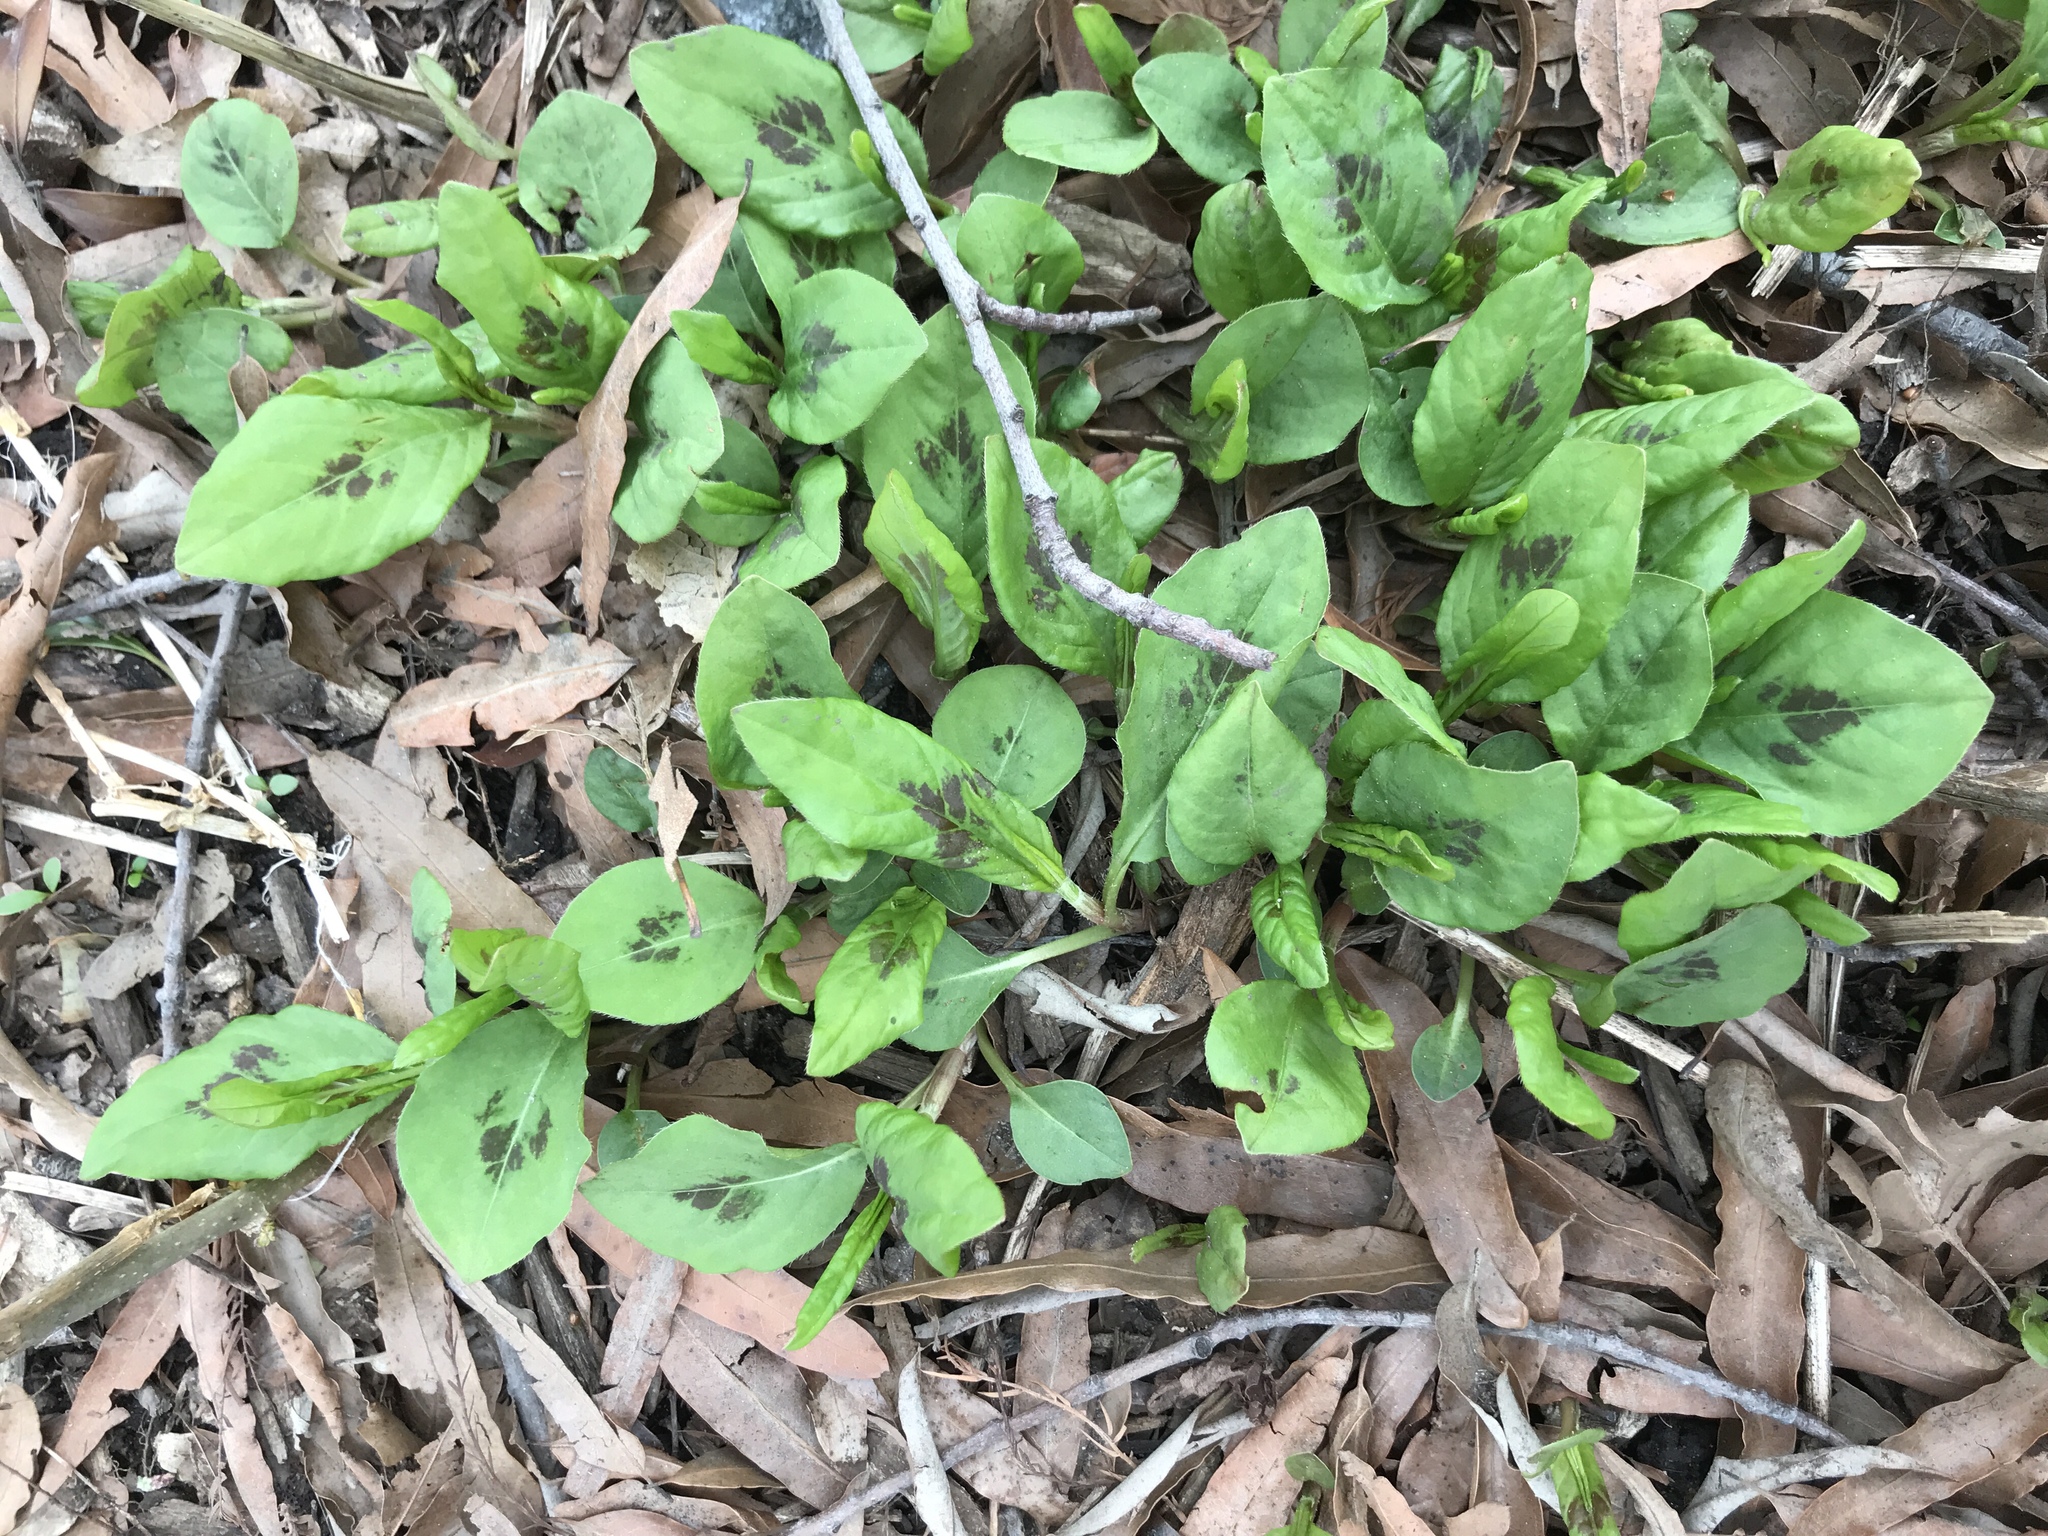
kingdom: Plantae
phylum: Tracheophyta
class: Magnoliopsida
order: Caryophyllales
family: Polygonaceae
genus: Persicaria
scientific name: Persicaria virginiana
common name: Jumpseed
